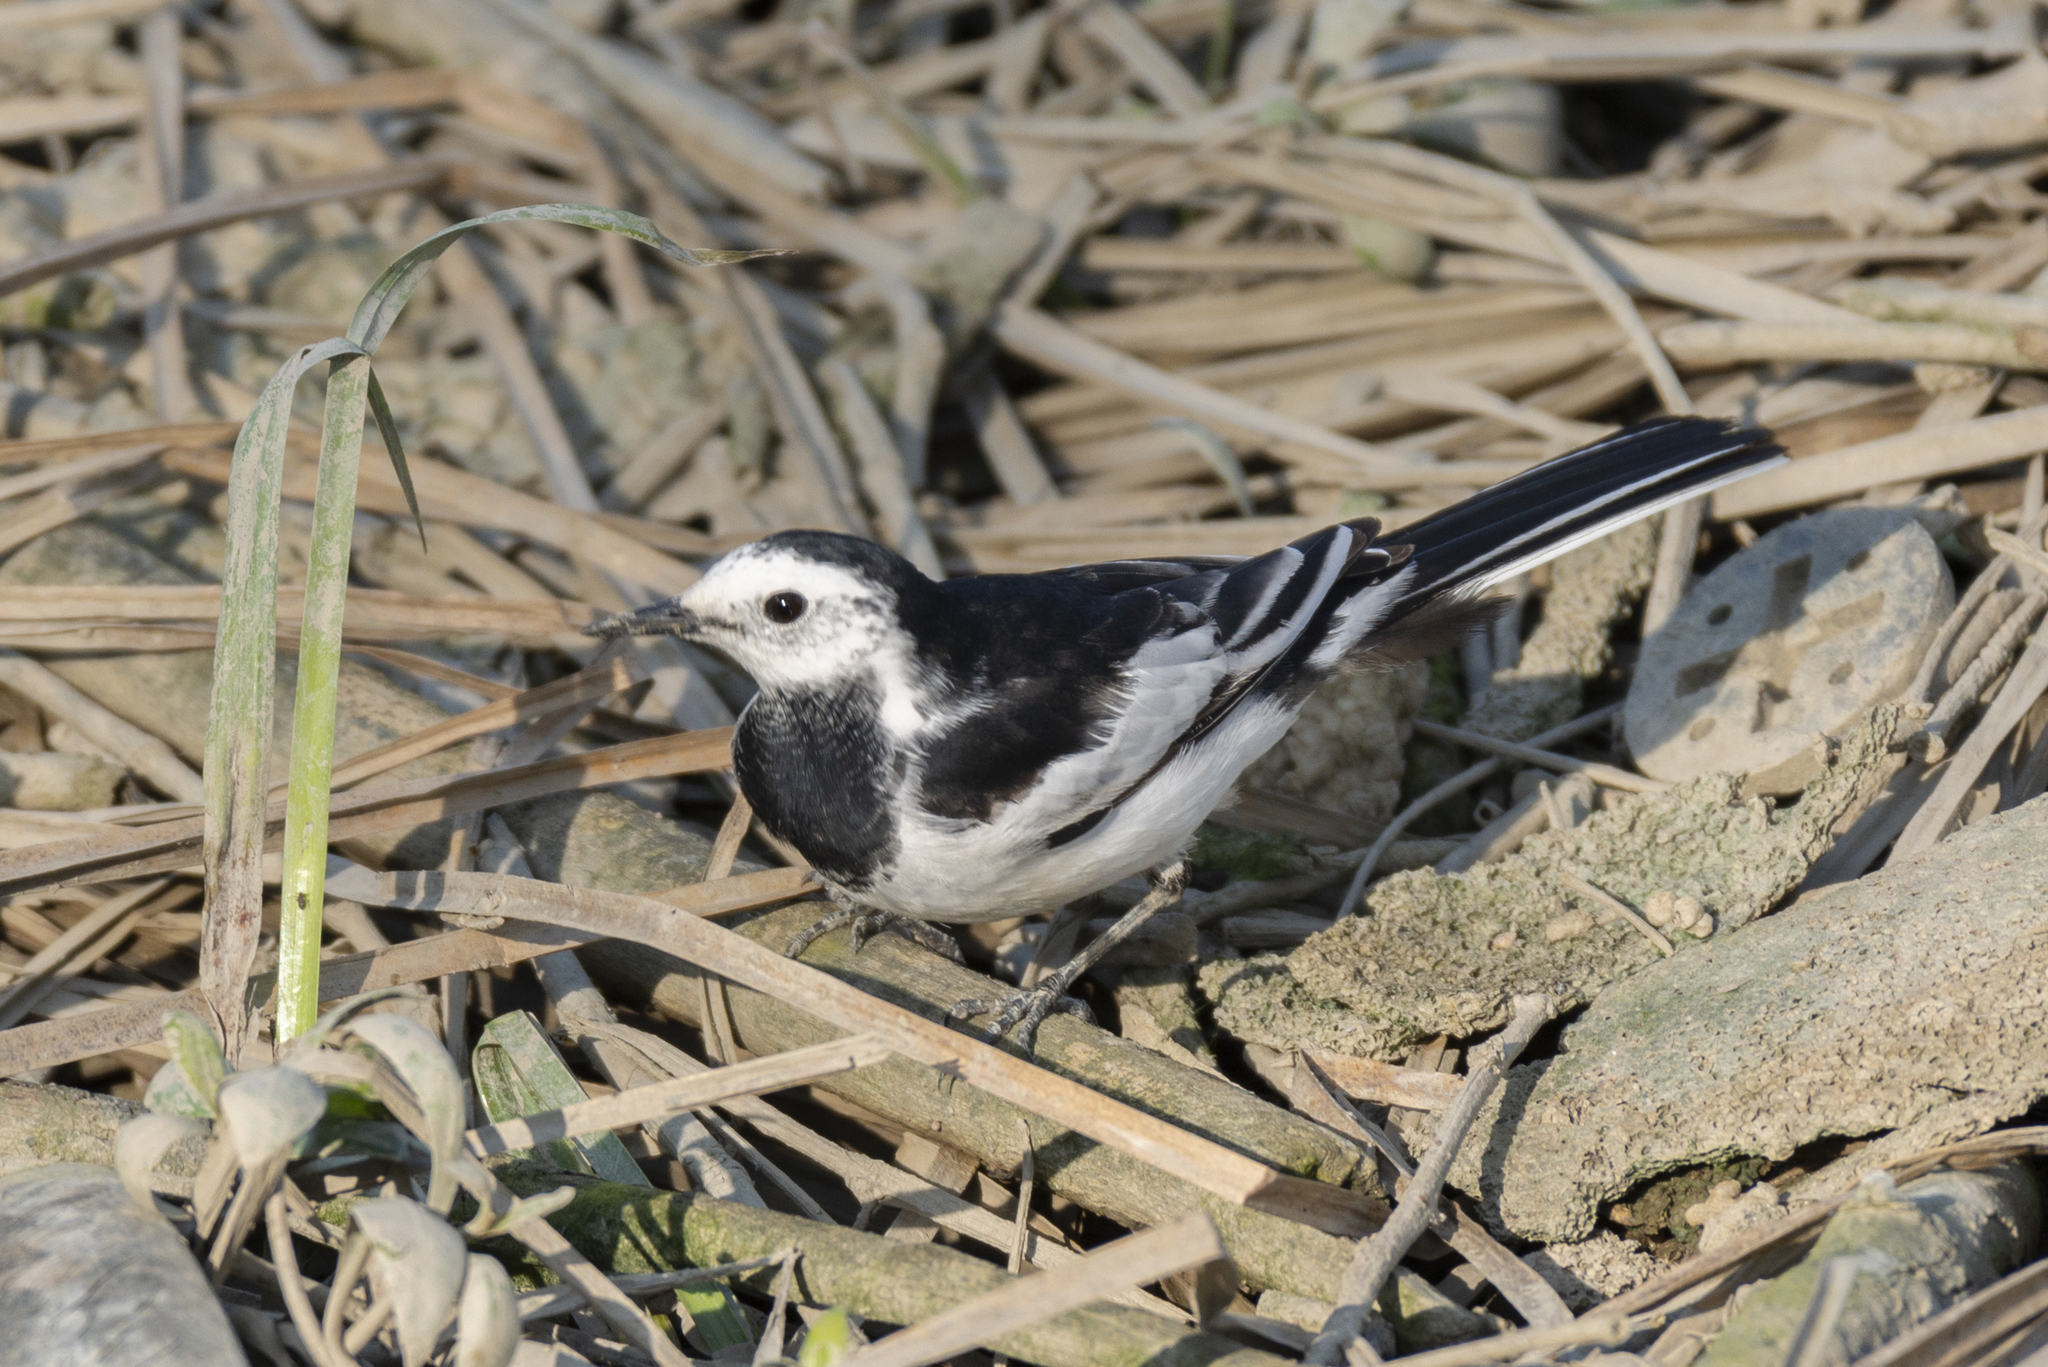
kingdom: Animalia
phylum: Chordata
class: Aves
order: Passeriformes
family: Motacillidae
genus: Motacilla
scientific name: Motacilla alba
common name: White wagtail
